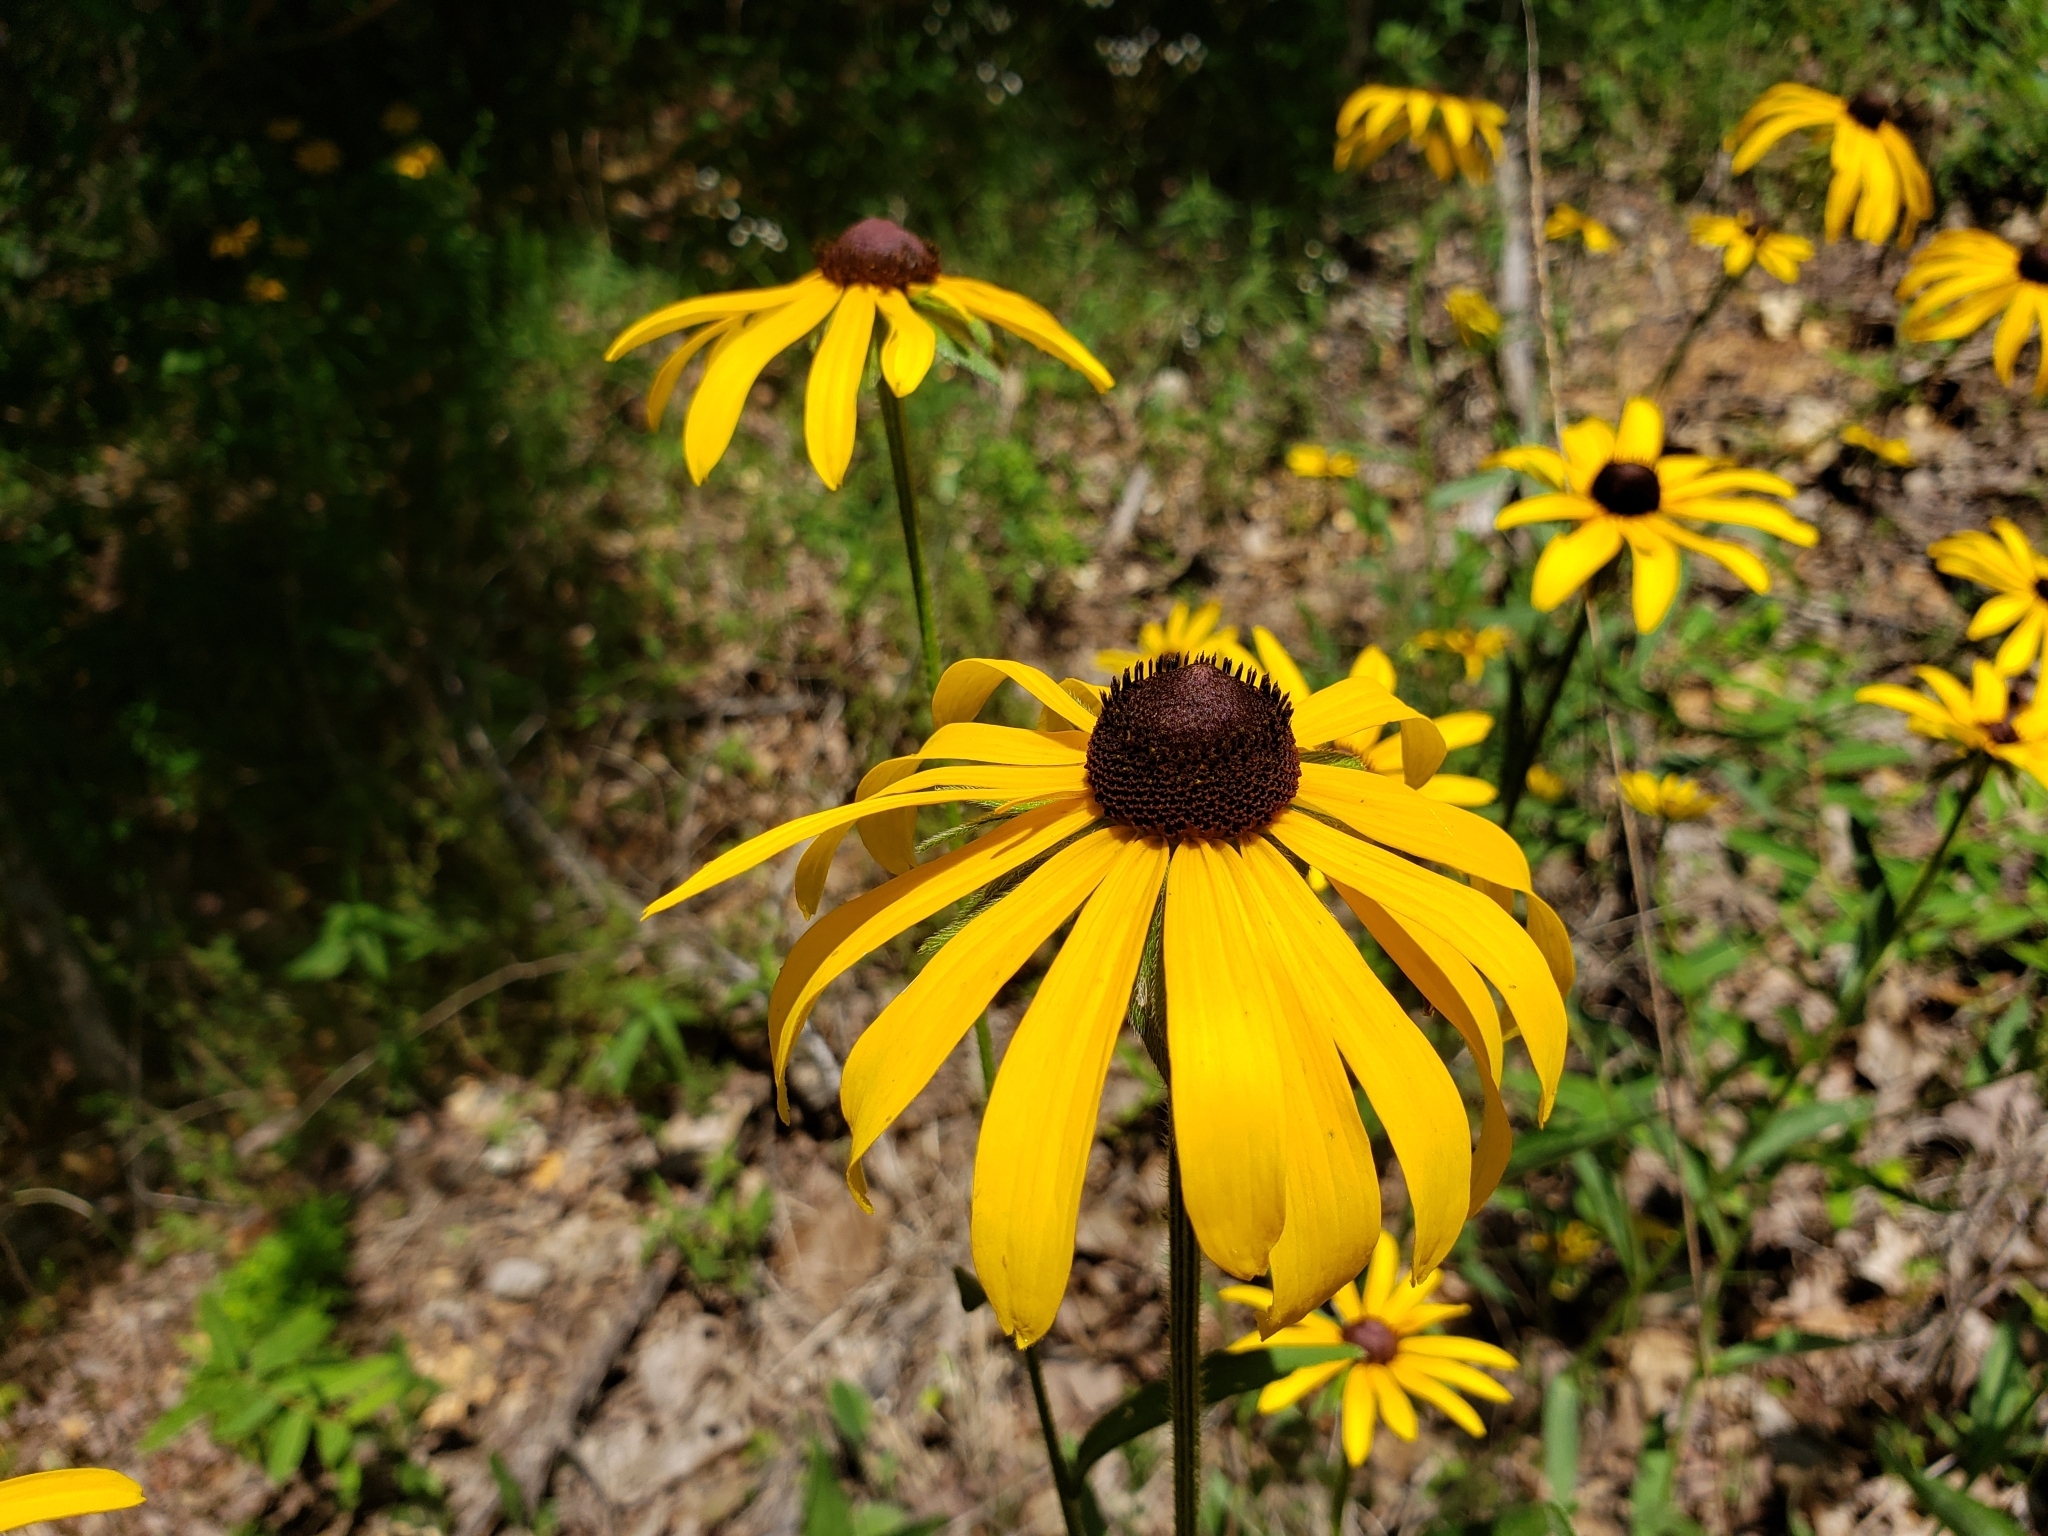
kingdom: Plantae
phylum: Tracheophyta
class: Magnoliopsida
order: Asterales
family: Asteraceae
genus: Rudbeckia
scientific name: Rudbeckia hirta
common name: Black-eyed-susan
